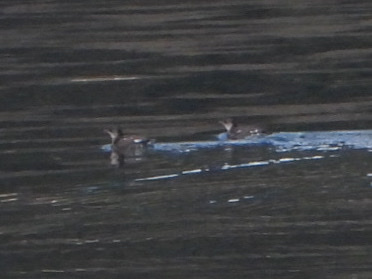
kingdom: Animalia
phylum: Chordata
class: Aves
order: Charadriiformes
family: Alcidae
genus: Brachyramphus
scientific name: Brachyramphus marmoratus
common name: Marbled murrelet
